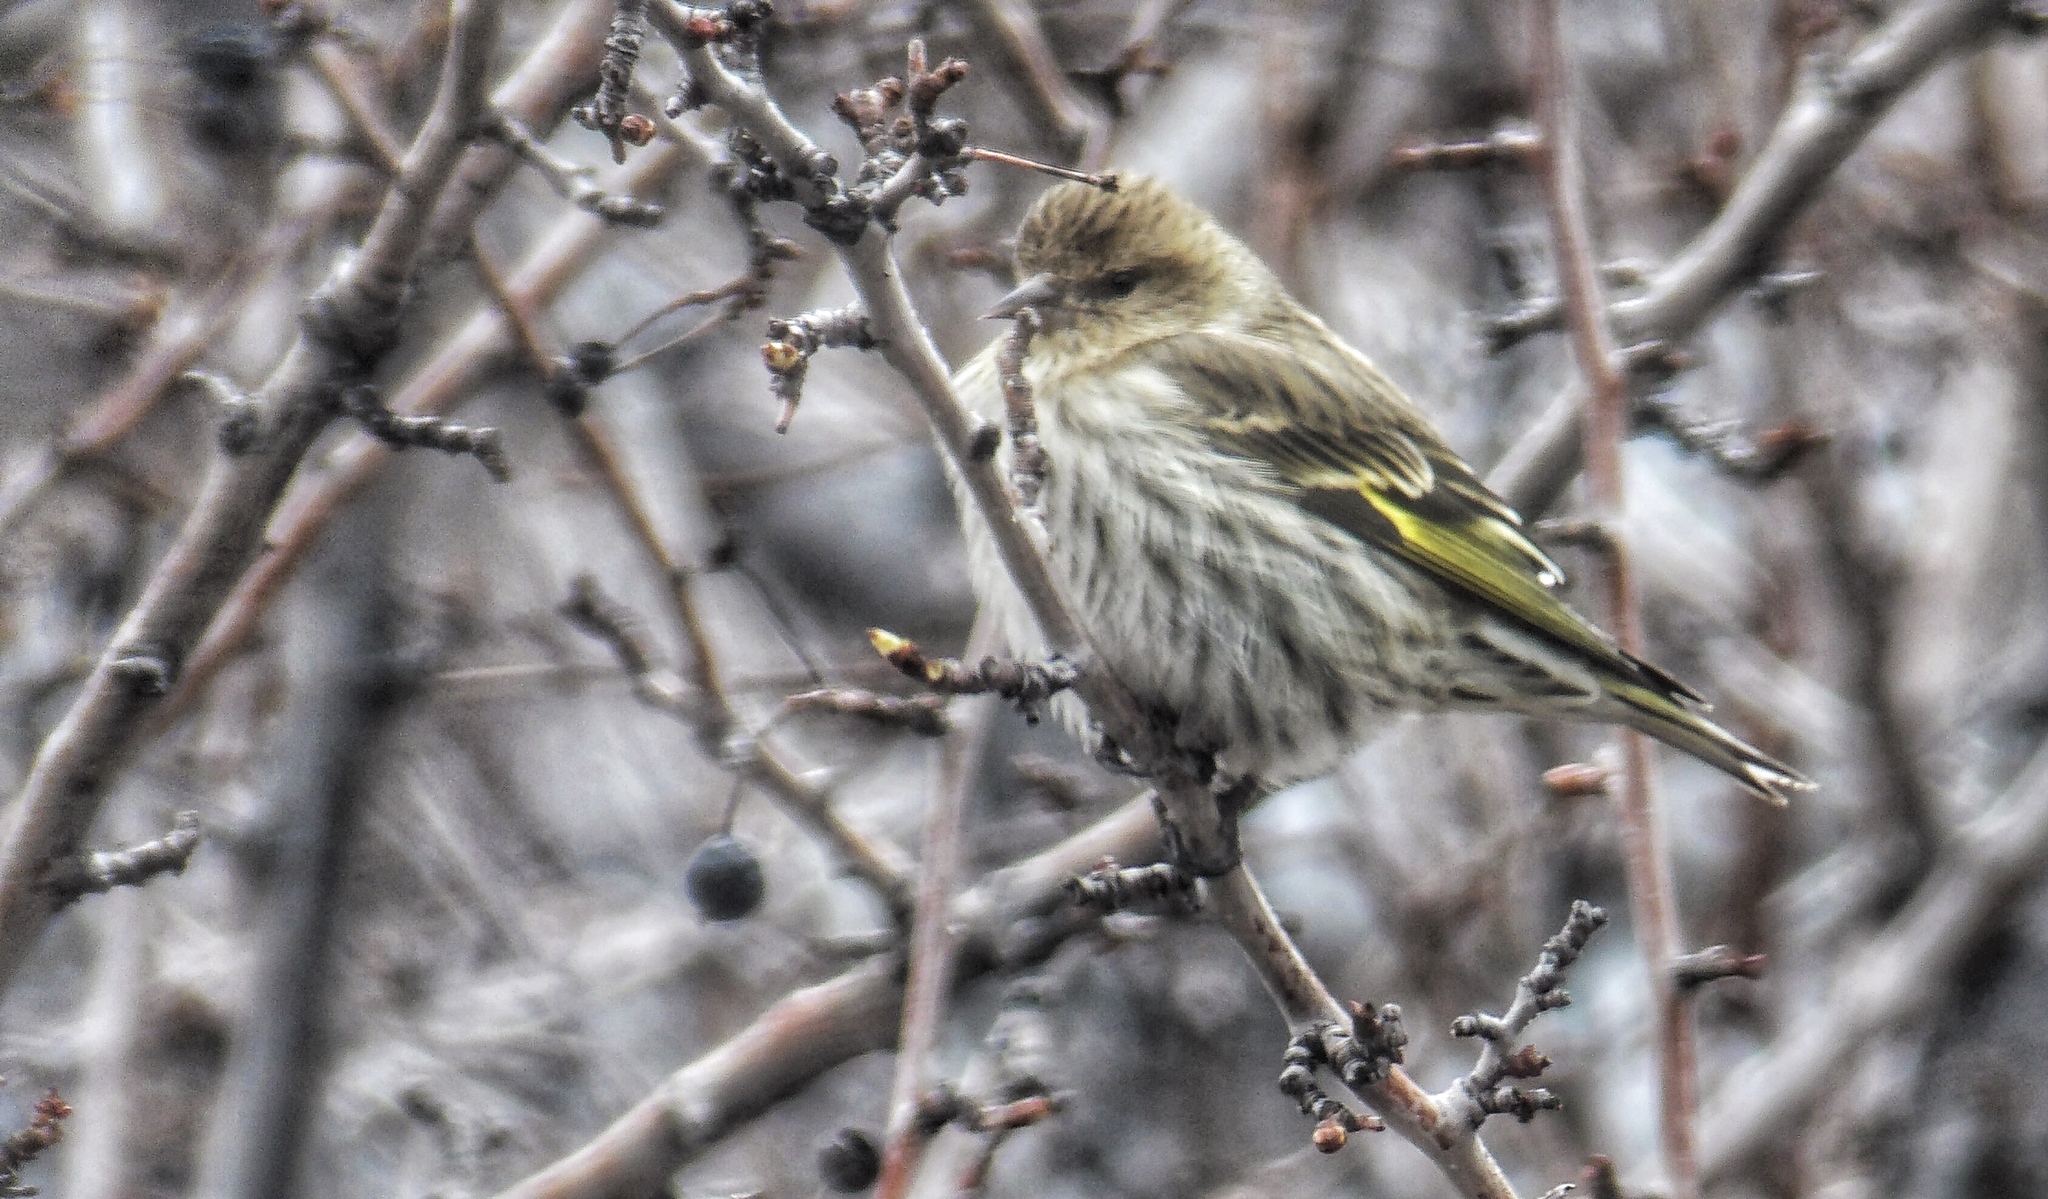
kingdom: Animalia
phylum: Chordata
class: Aves
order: Passeriformes
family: Fringillidae
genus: Spinus
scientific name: Spinus pinus
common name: Pine siskin
